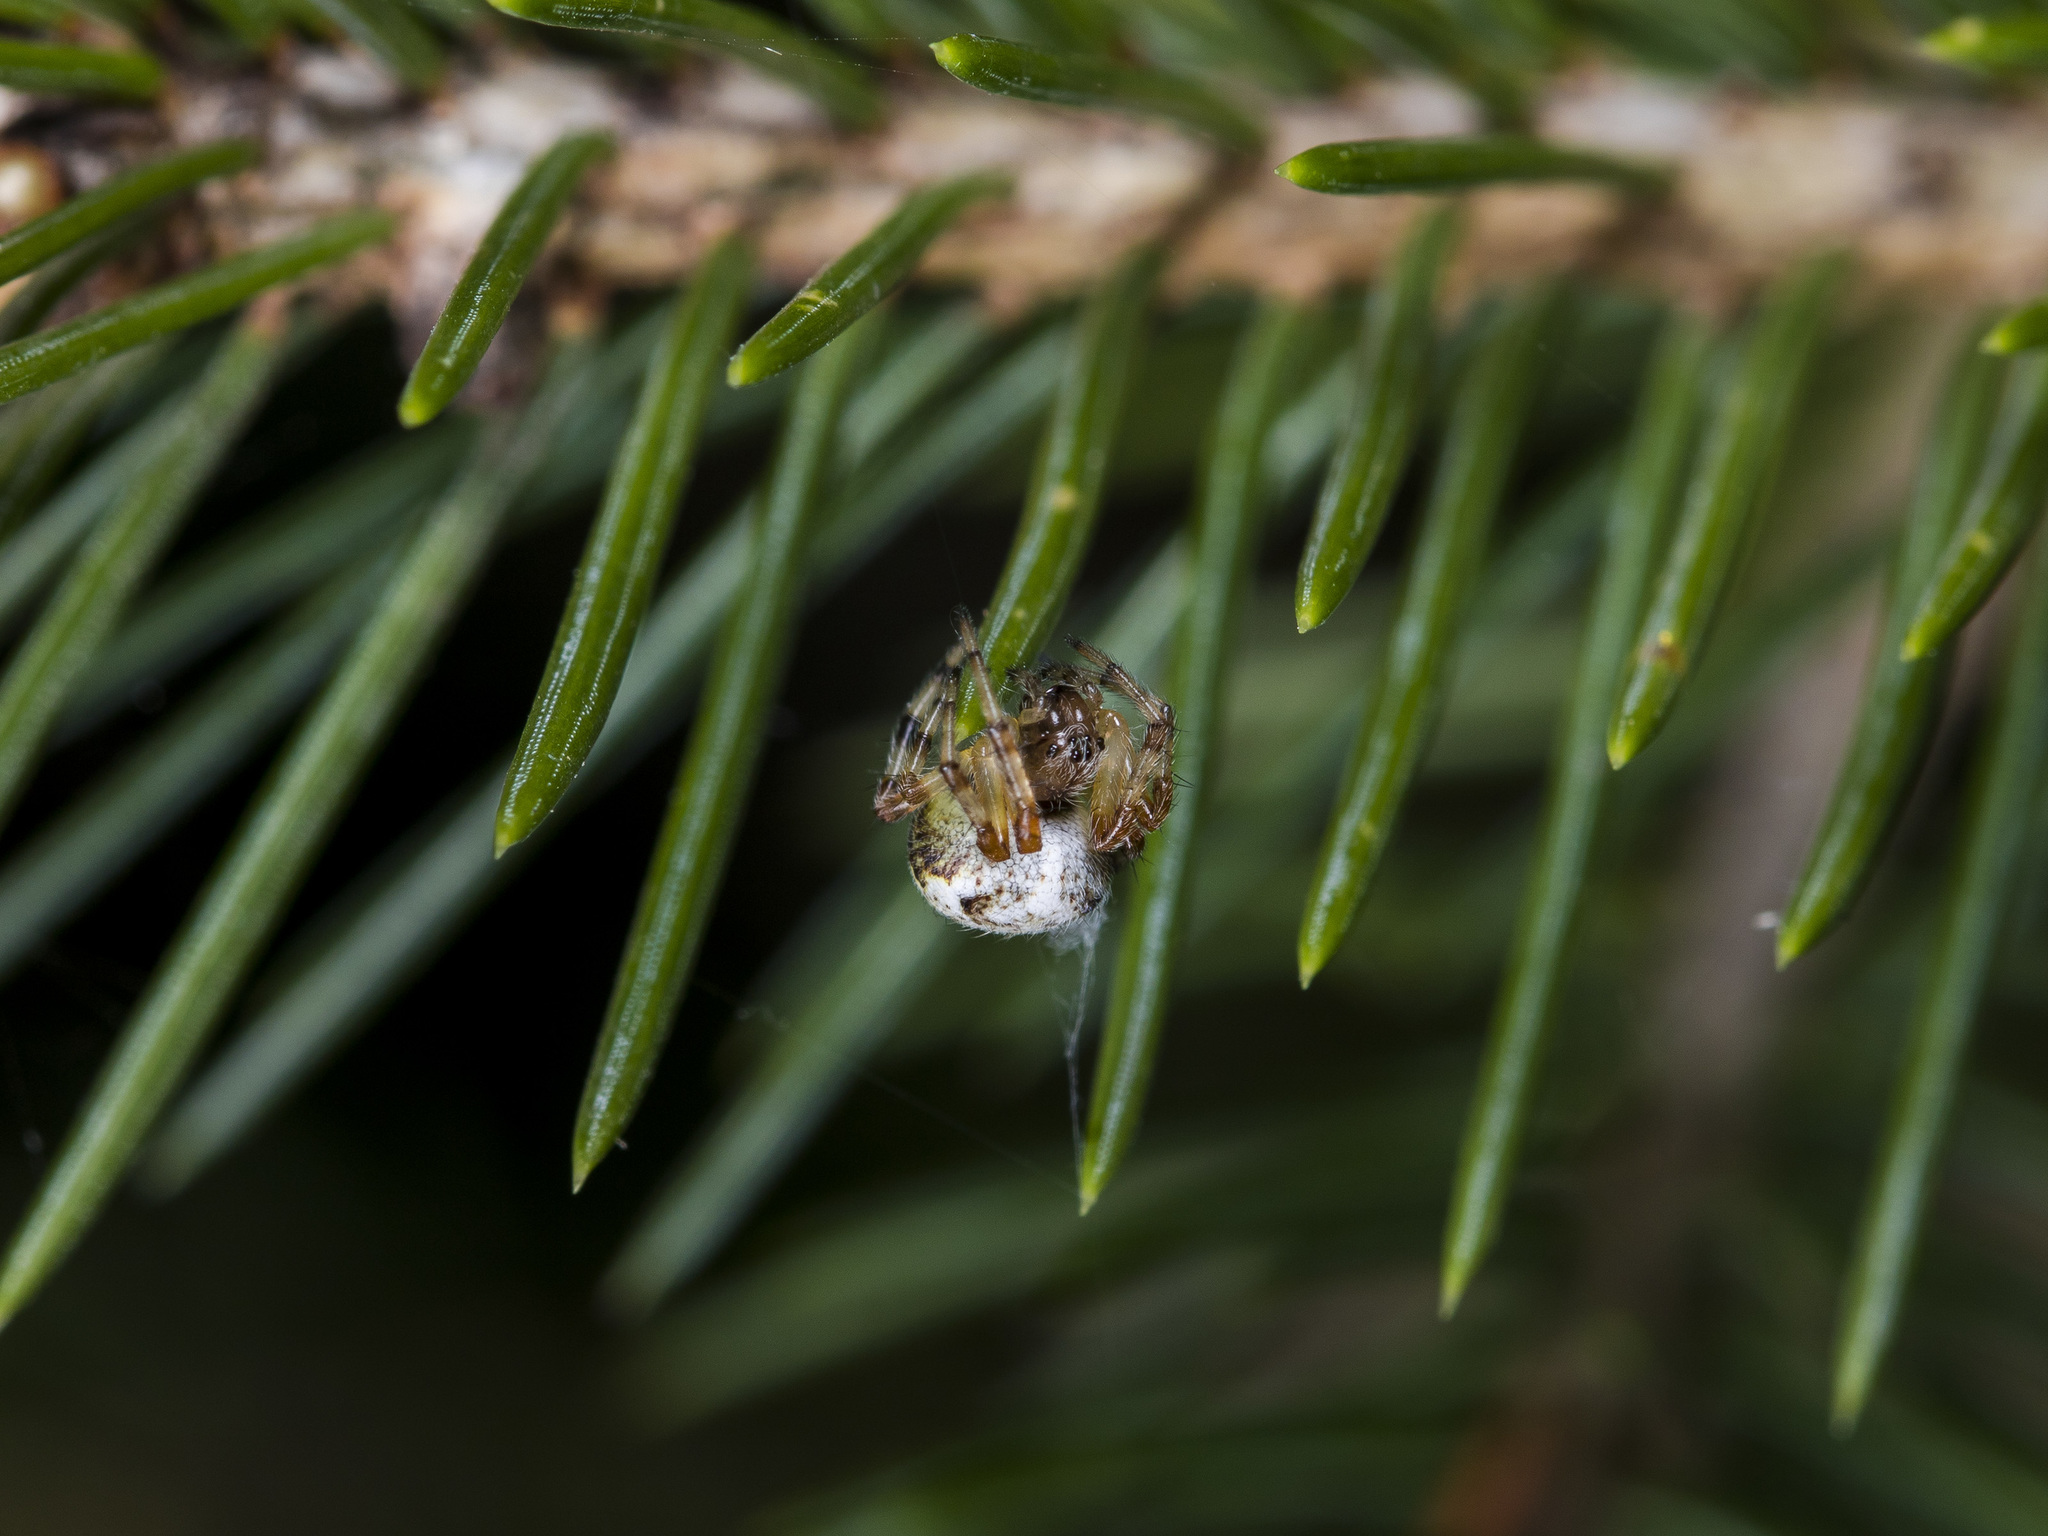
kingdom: Animalia
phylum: Arthropoda
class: Arachnida
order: Araneae
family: Araneidae
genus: Araneus
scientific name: Araneus marmoreus
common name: Marbled orbweaver
